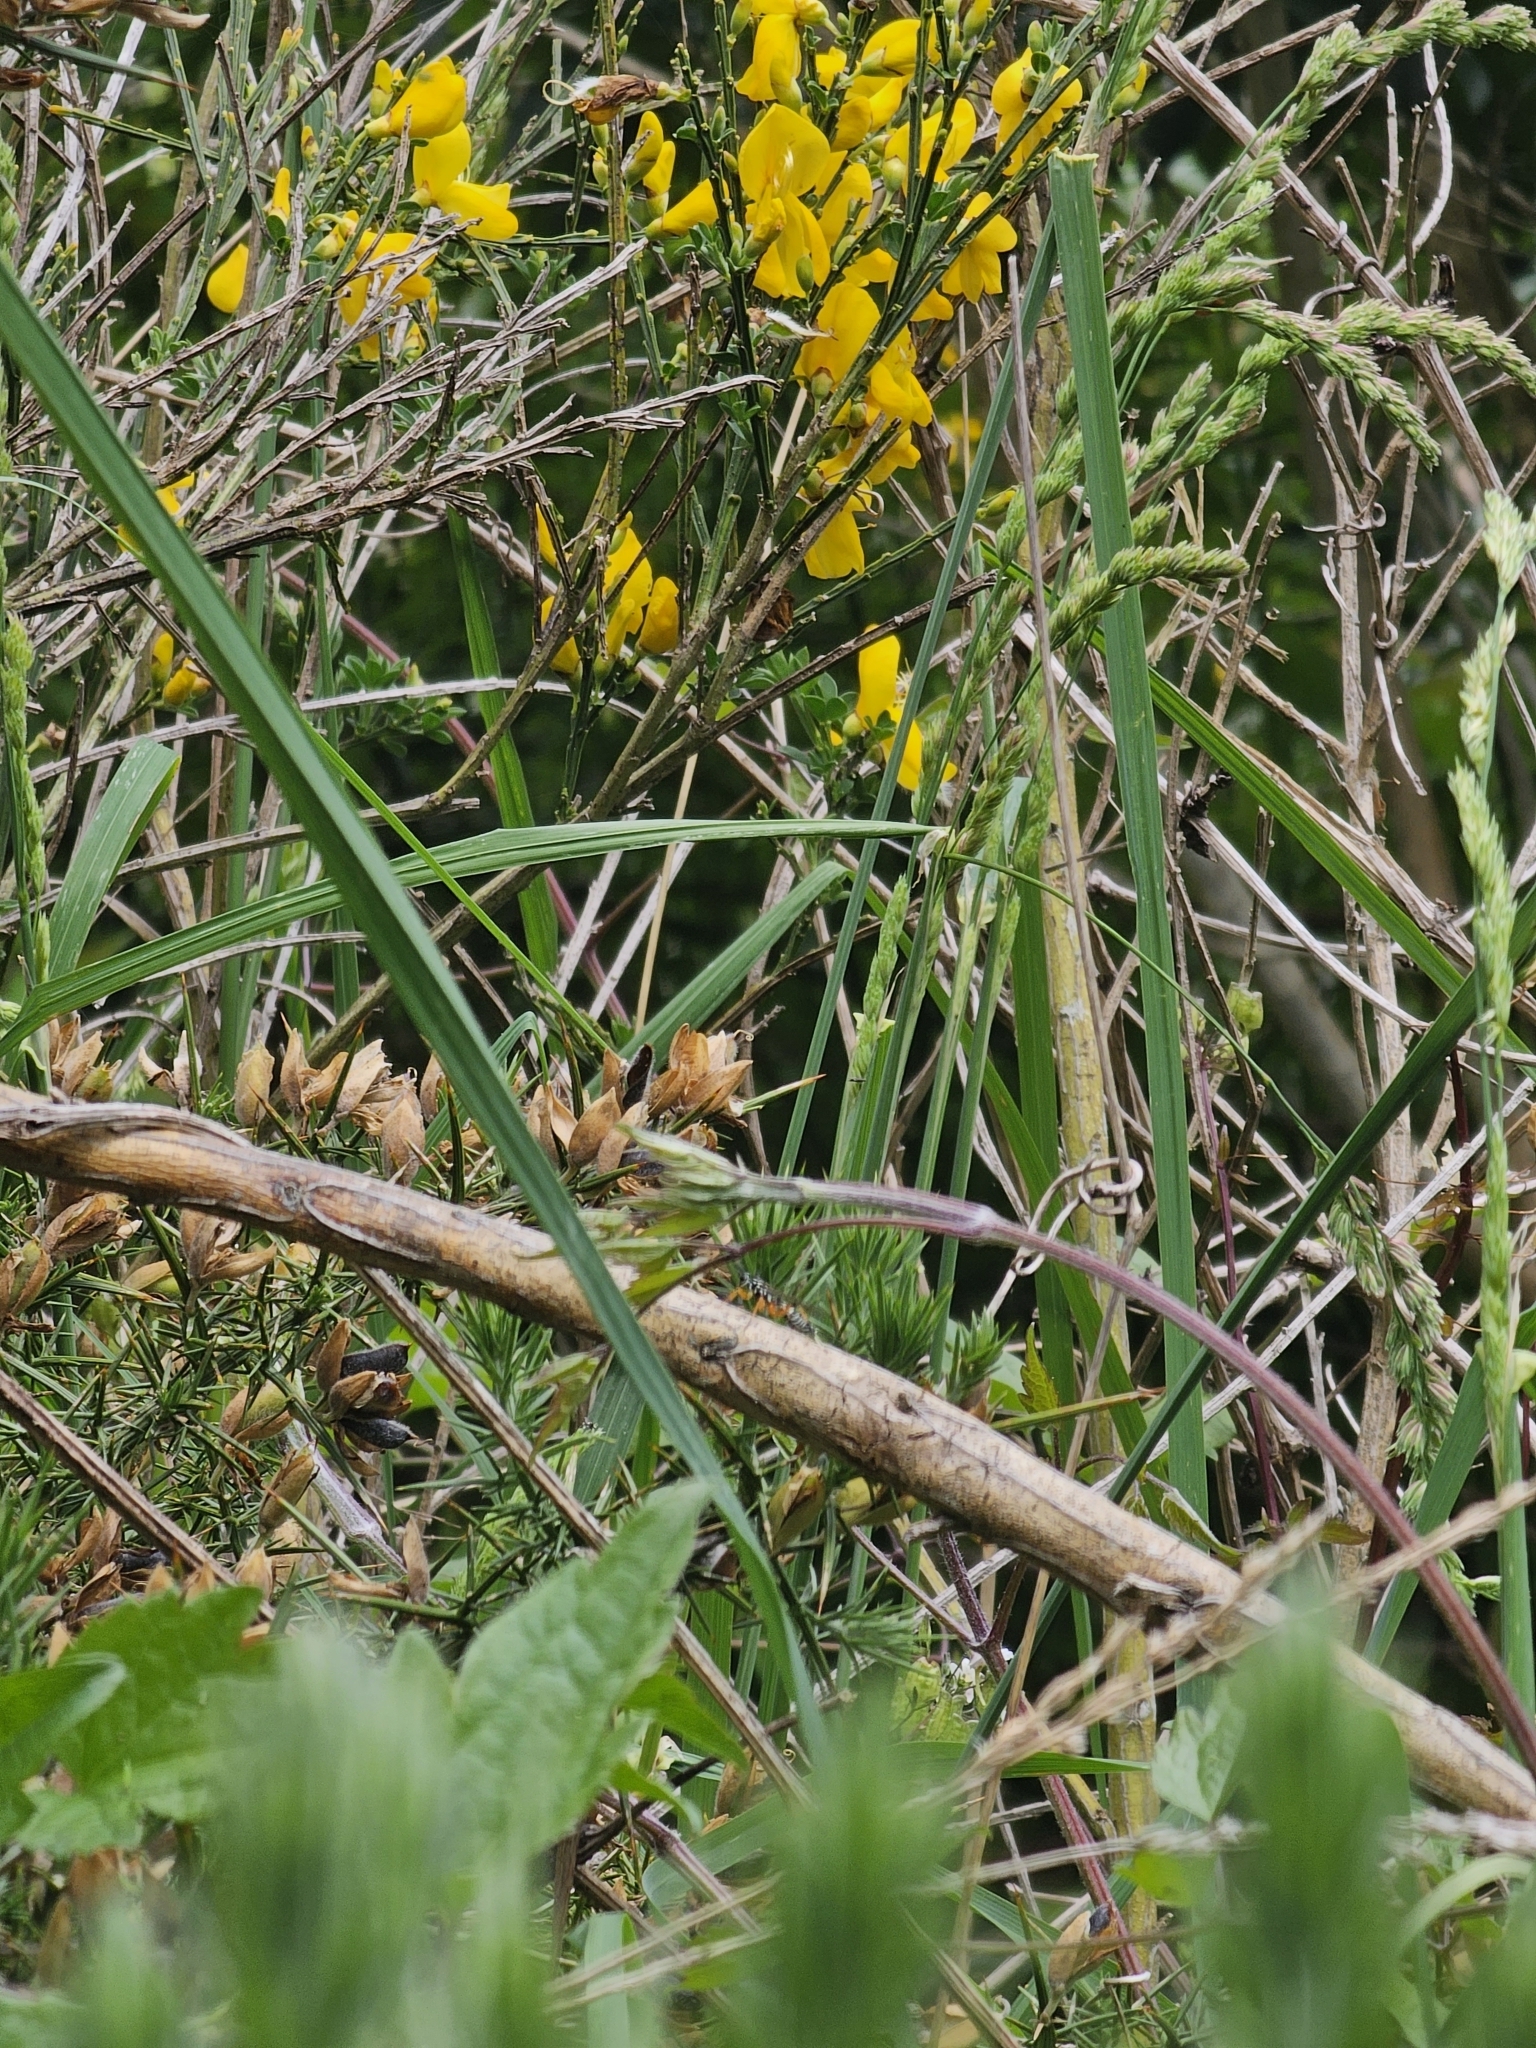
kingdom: Animalia
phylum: Arthropoda
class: Insecta
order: Hymenoptera
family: Ichneumonidae
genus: Xanthocryptus
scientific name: Xanthocryptus novozealandicus
